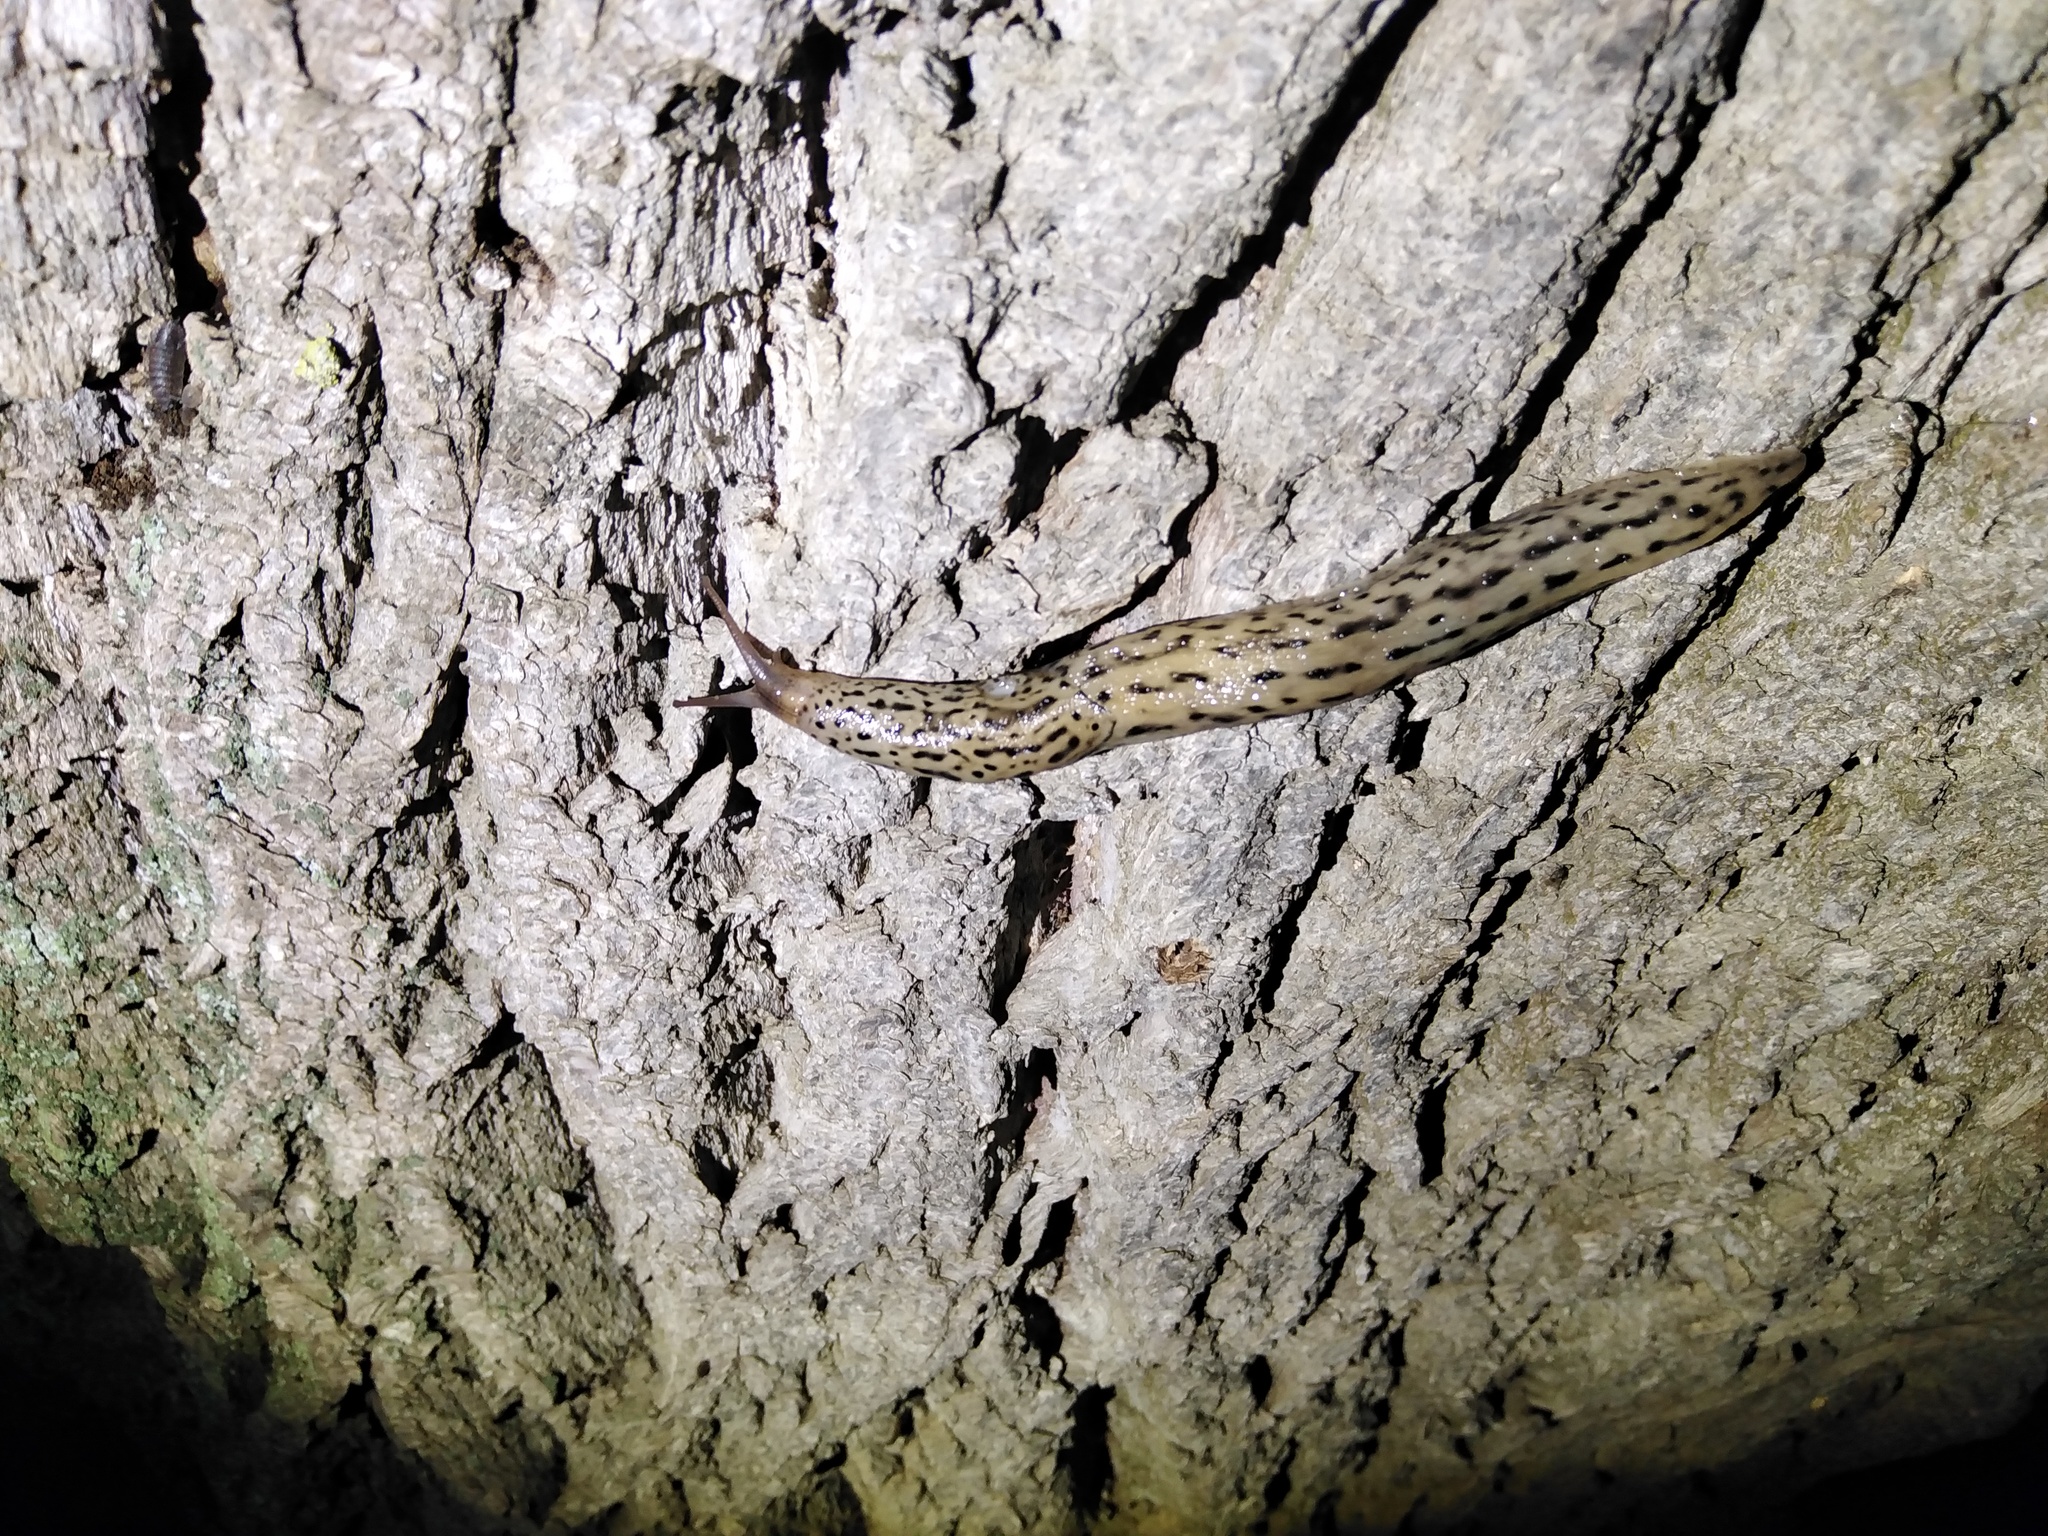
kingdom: Animalia
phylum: Mollusca
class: Gastropoda
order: Stylommatophora
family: Limacidae
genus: Limax
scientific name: Limax maximus
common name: Great grey slug
